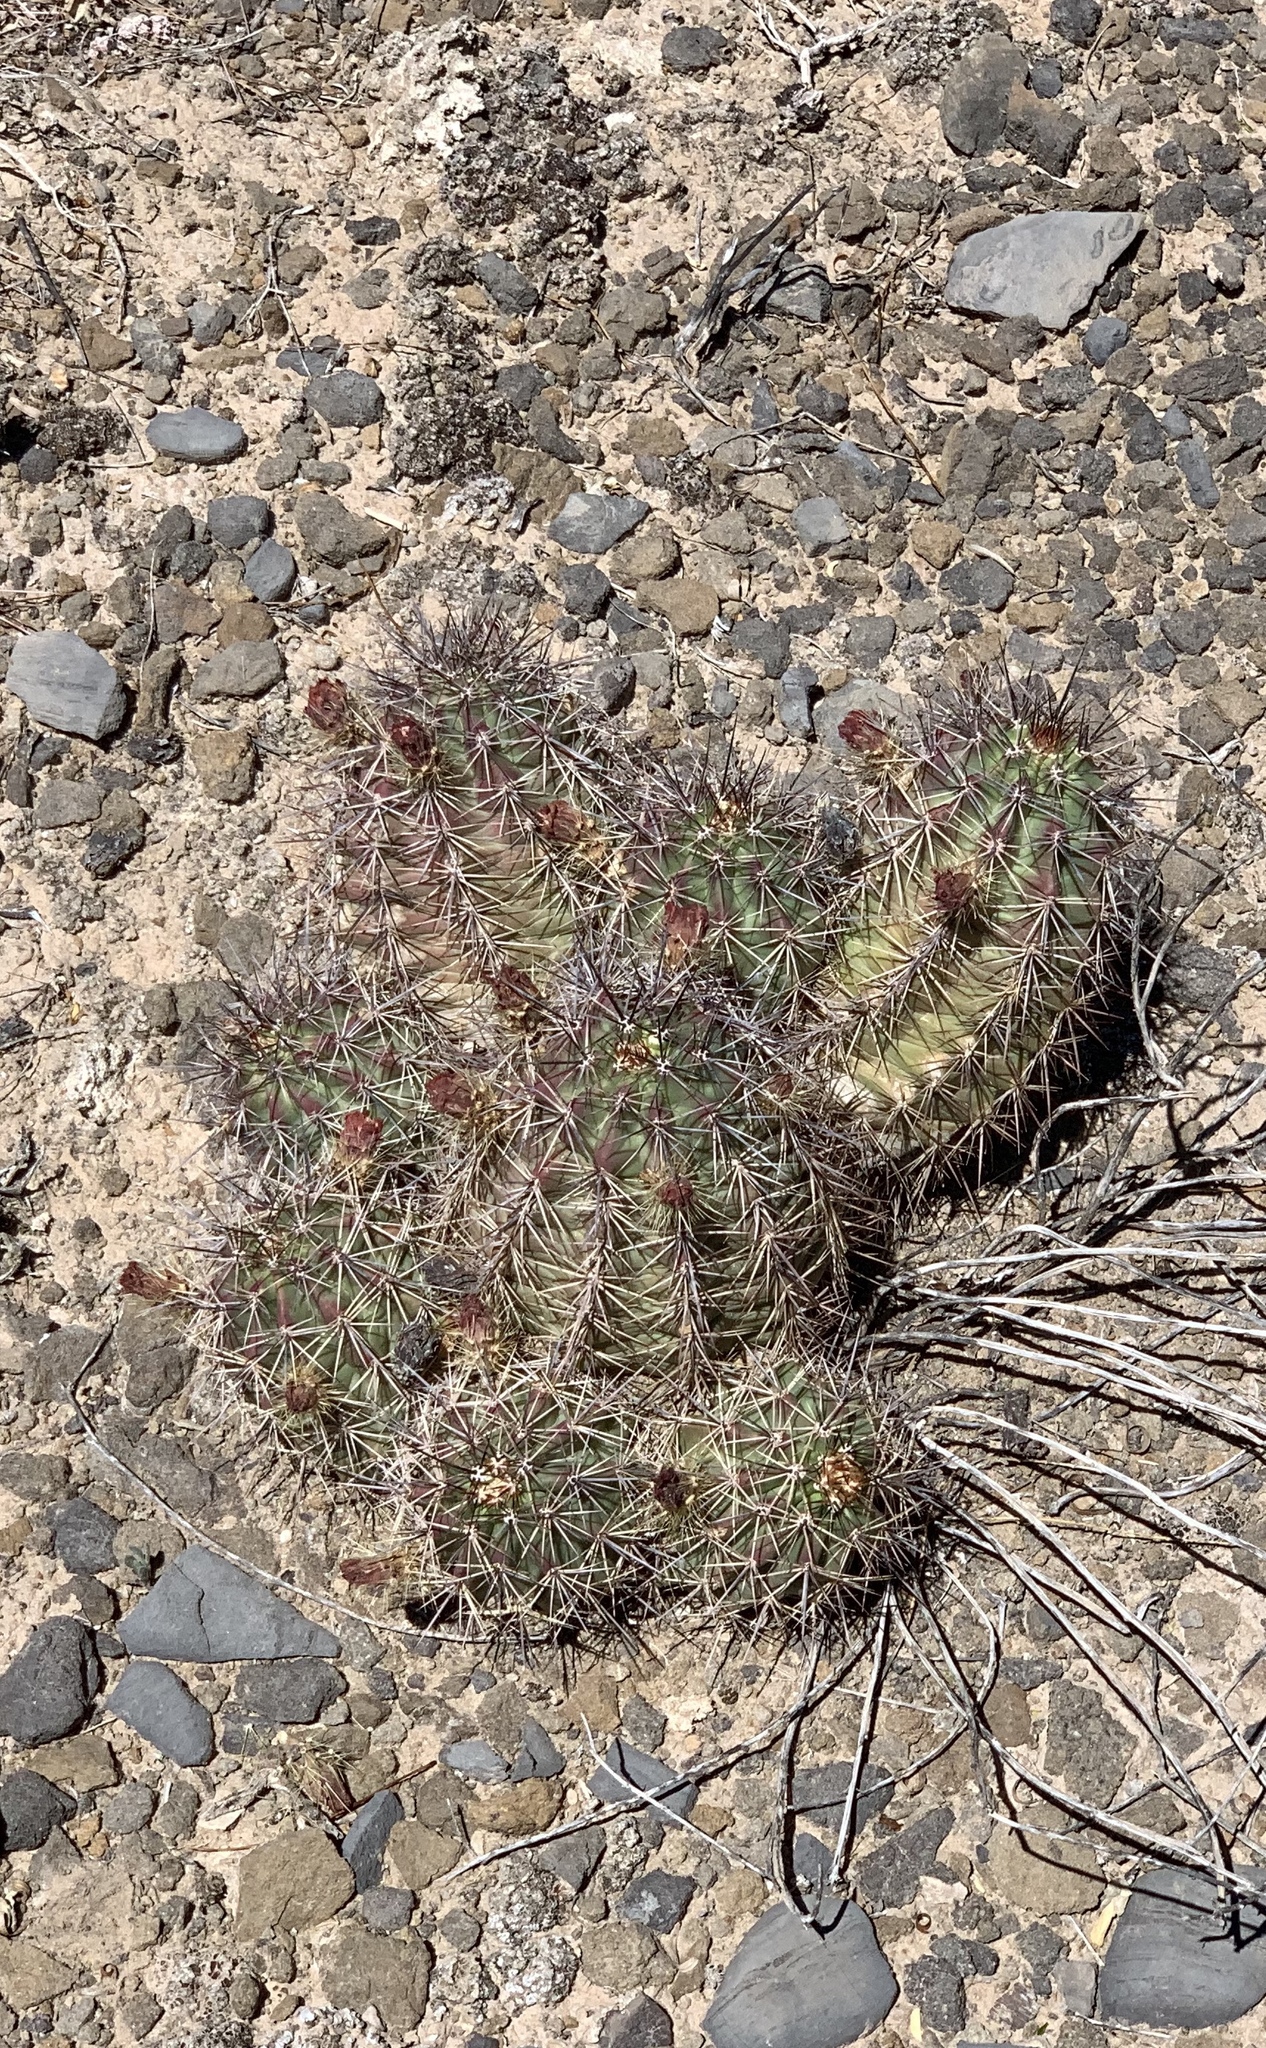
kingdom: Plantae
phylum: Tracheophyta
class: Magnoliopsida
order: Caryophyllales
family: Cactaceae
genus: Echinocereus
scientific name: Echinocereus coccineus
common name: Scarlet hedgehog cactus
